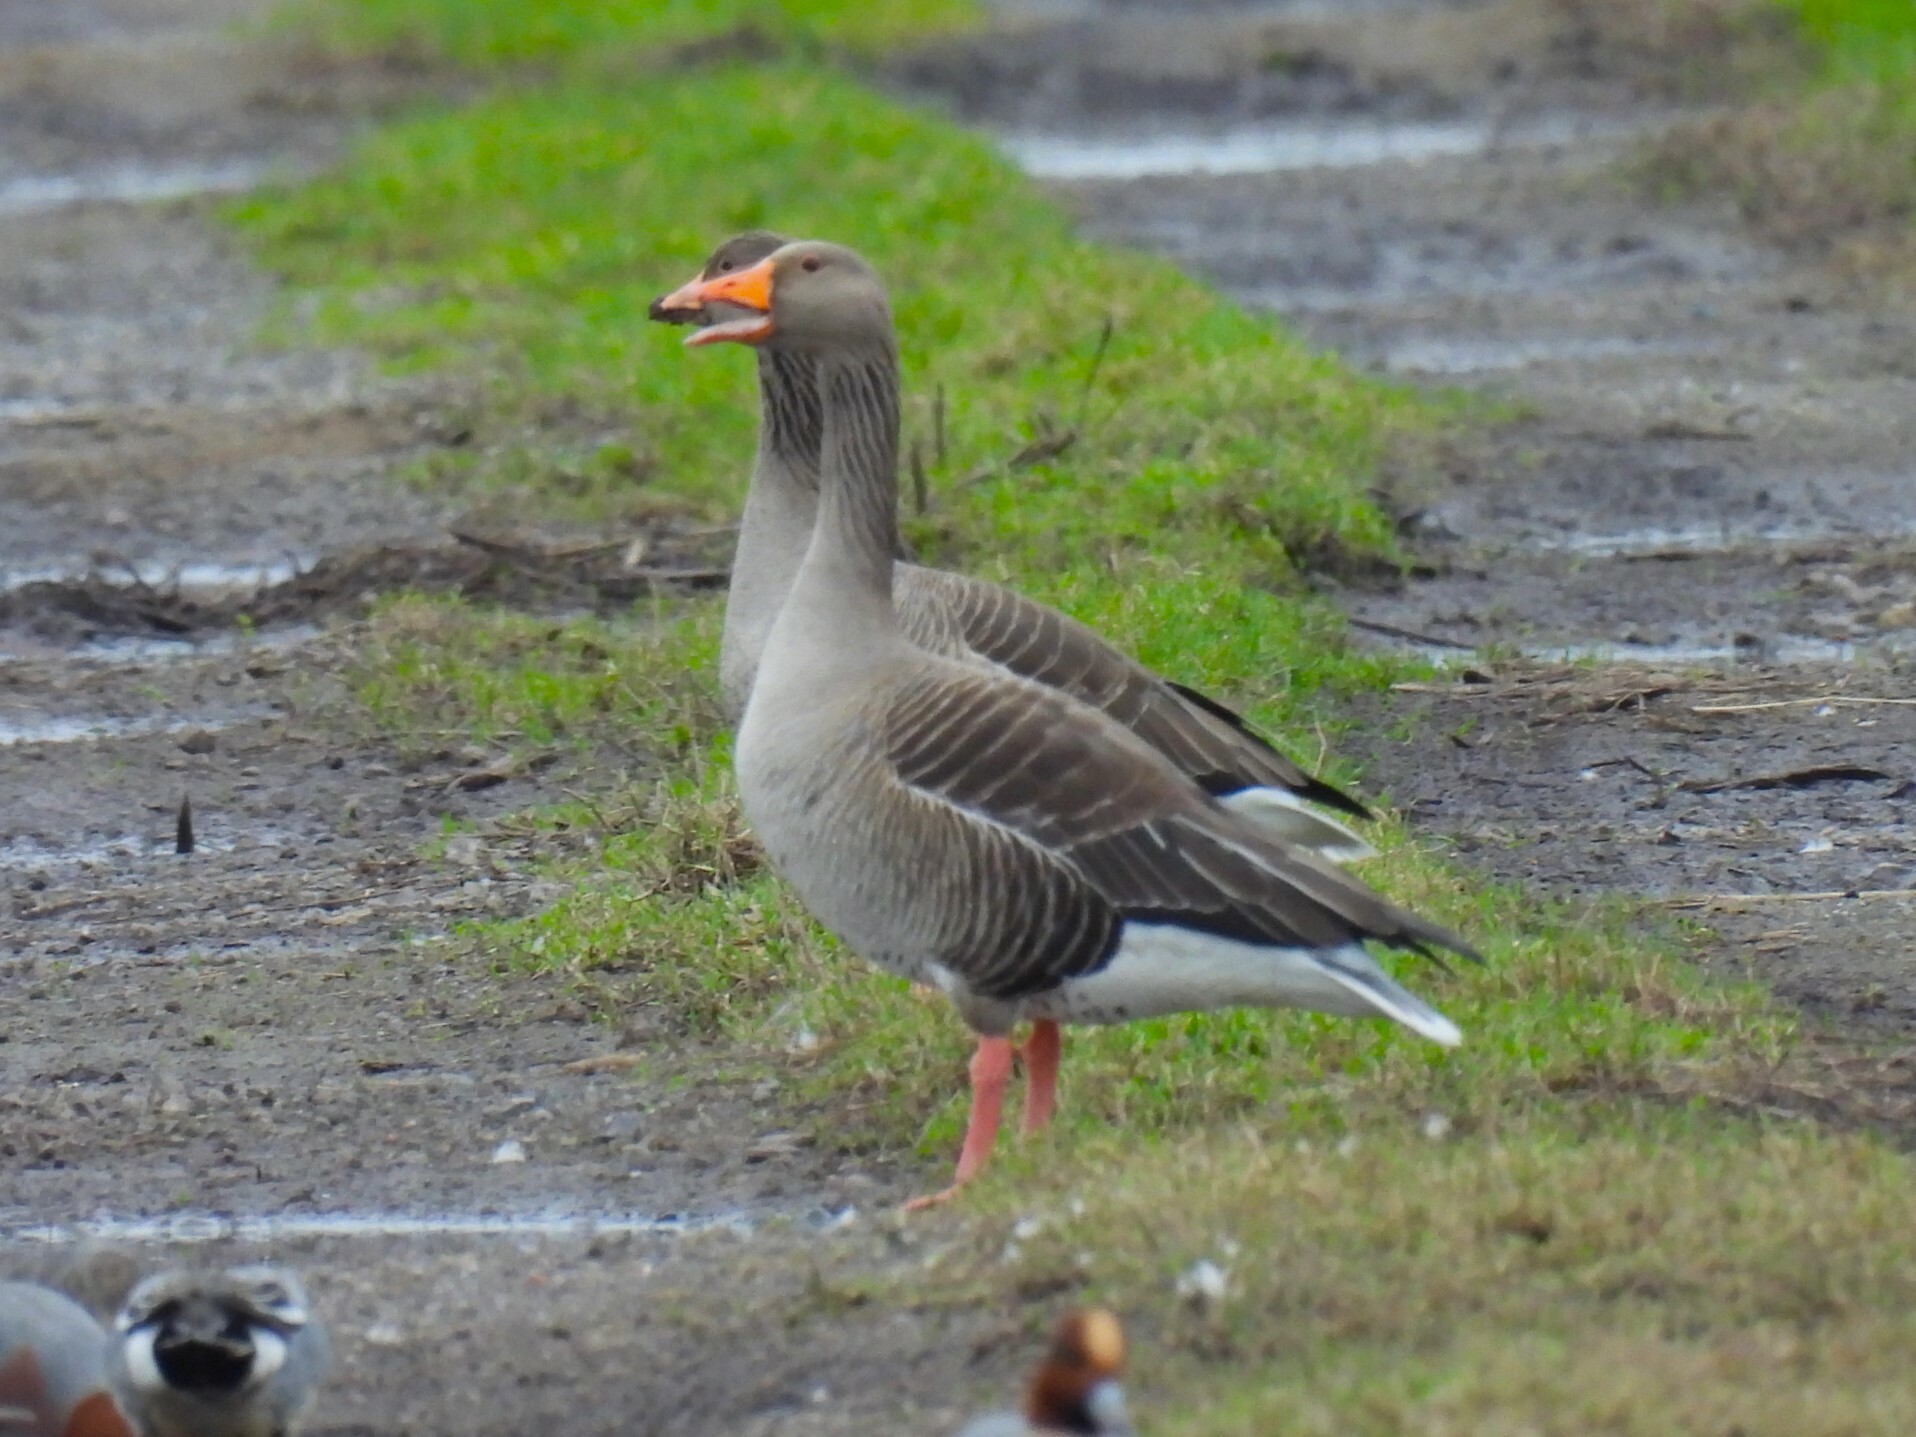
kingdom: Animalia
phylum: Chordata
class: Aves
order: Anseriformes
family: Anatidae
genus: Anser
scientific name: Anser anser
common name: Greylag goose
